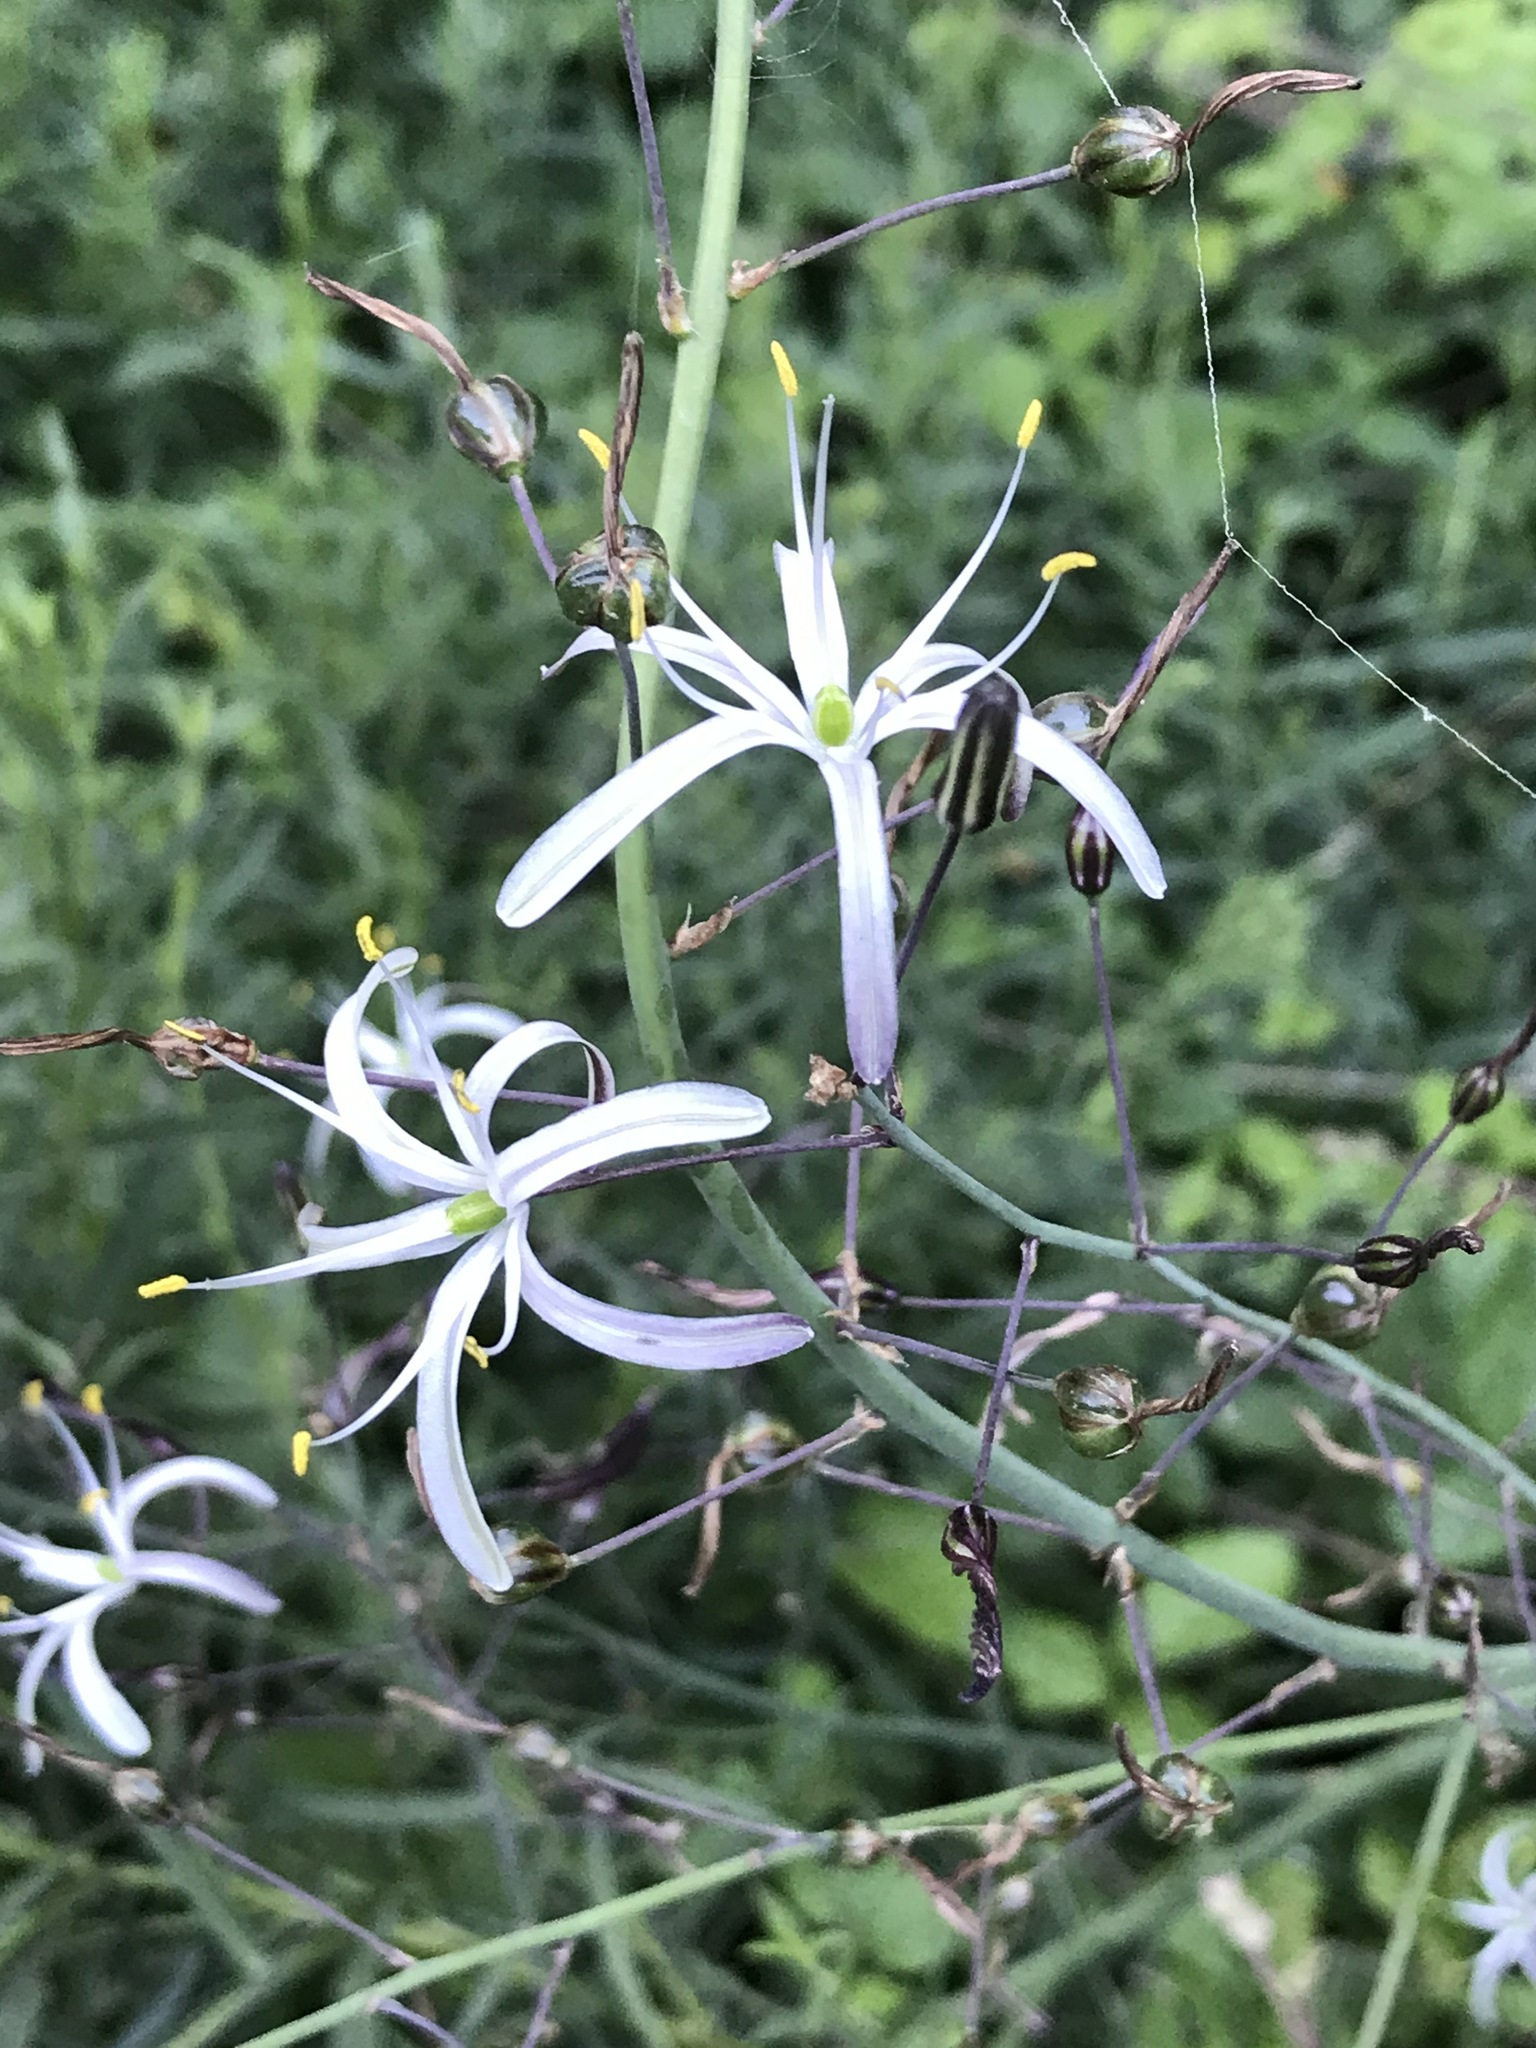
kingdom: Plantae
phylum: Tracheophyta
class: Liliopsida
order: Asparagales
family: Asparagaceae
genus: Chlorogalum
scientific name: Chlorogalum pomeridianum
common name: Amole
